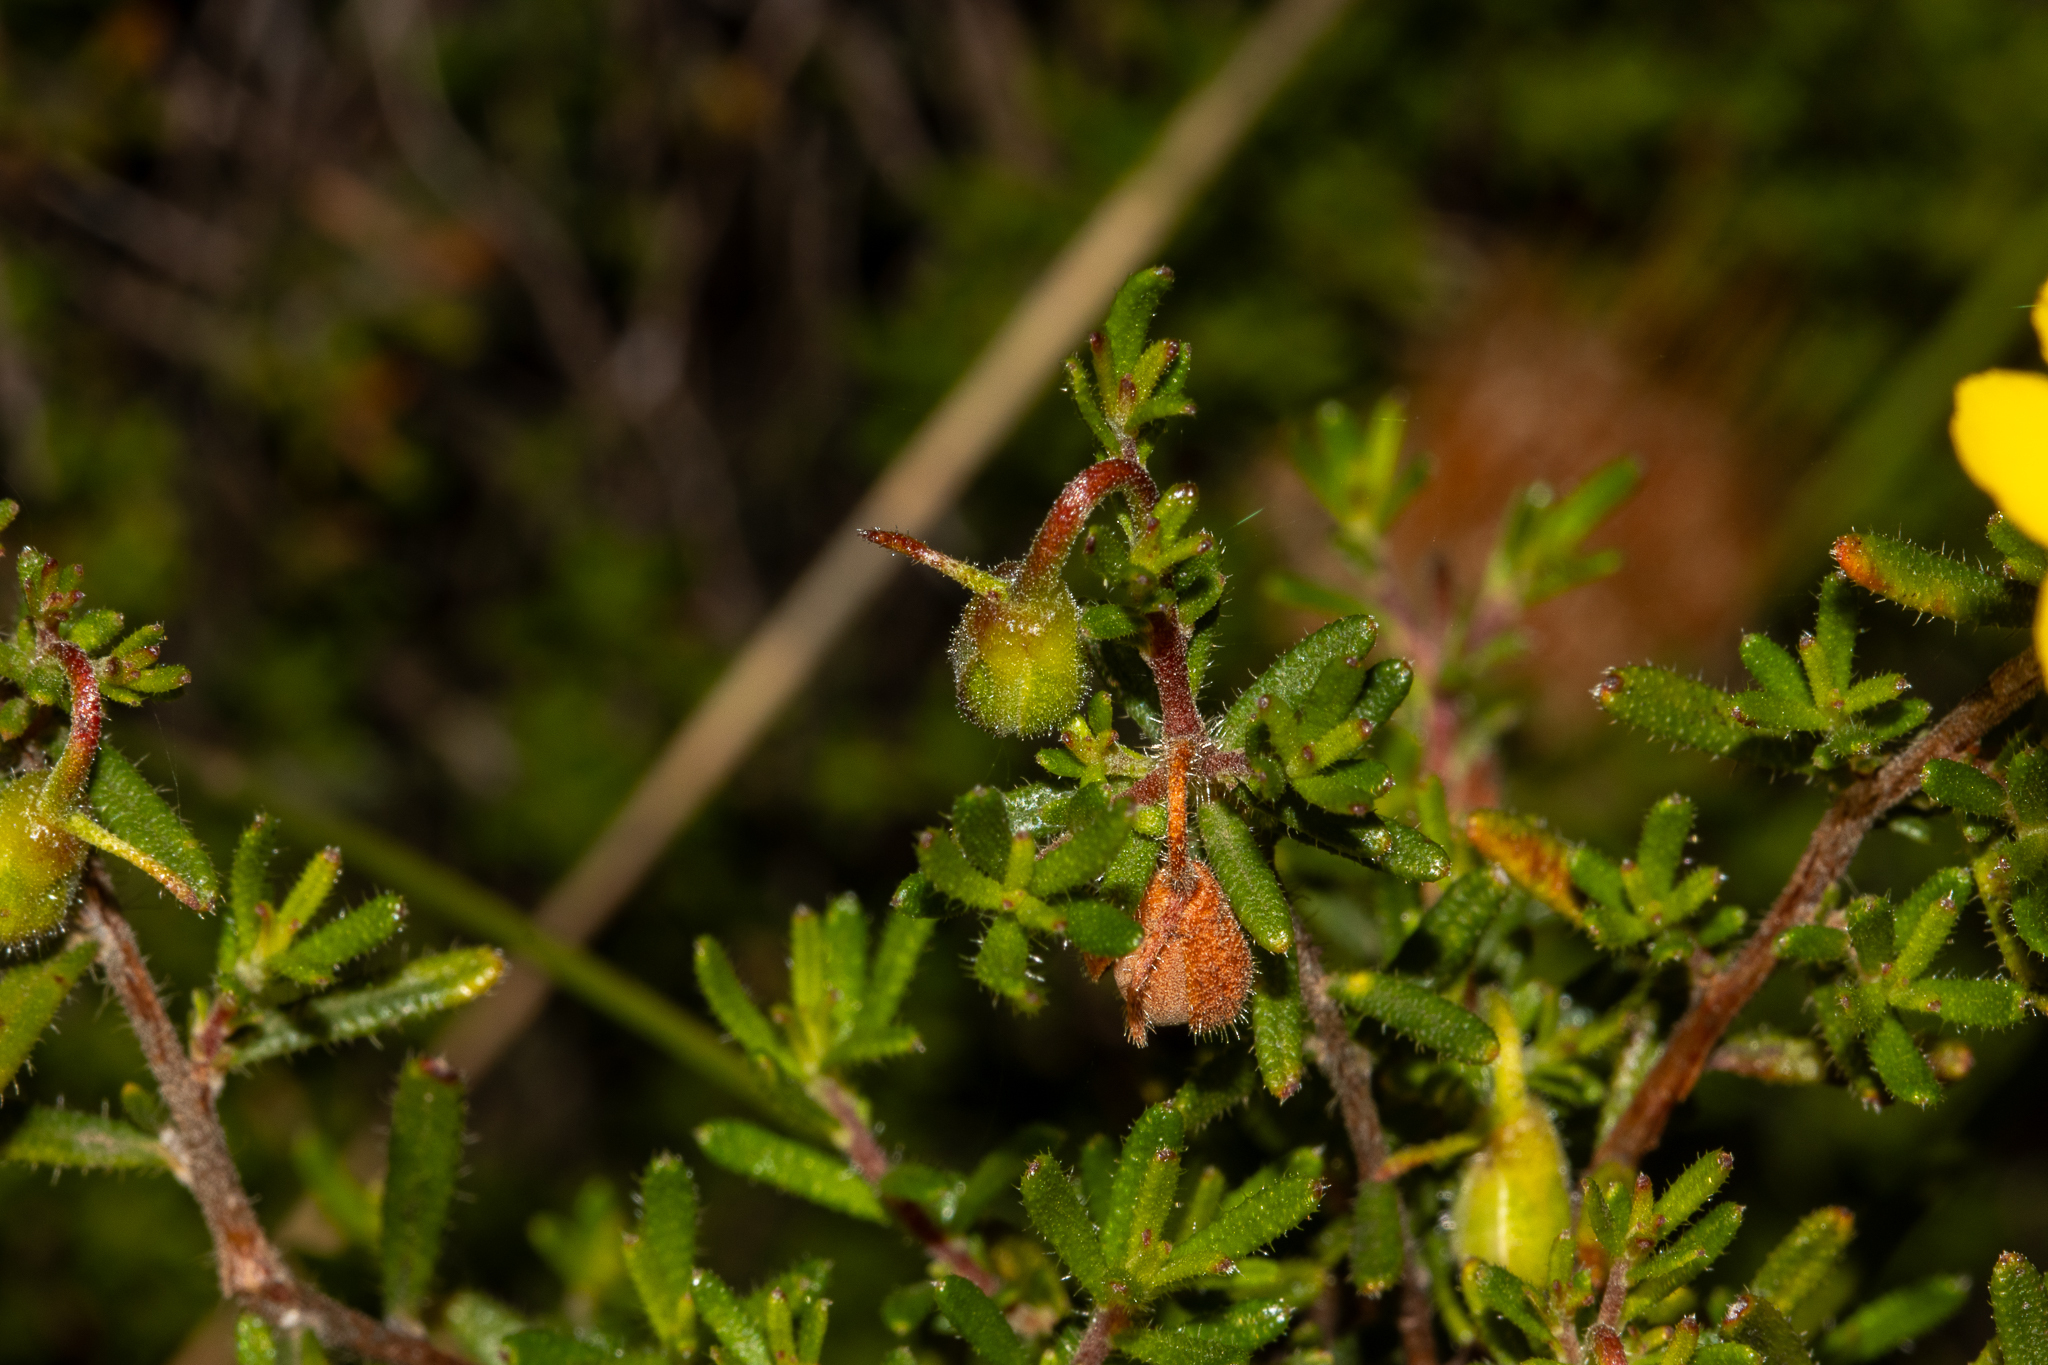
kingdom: Plantae
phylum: Tracheophyta
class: Magnoliopsida
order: Dilleniales
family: Dilleniaceae
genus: Hibbertia
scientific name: Hibbertia hypericoides
